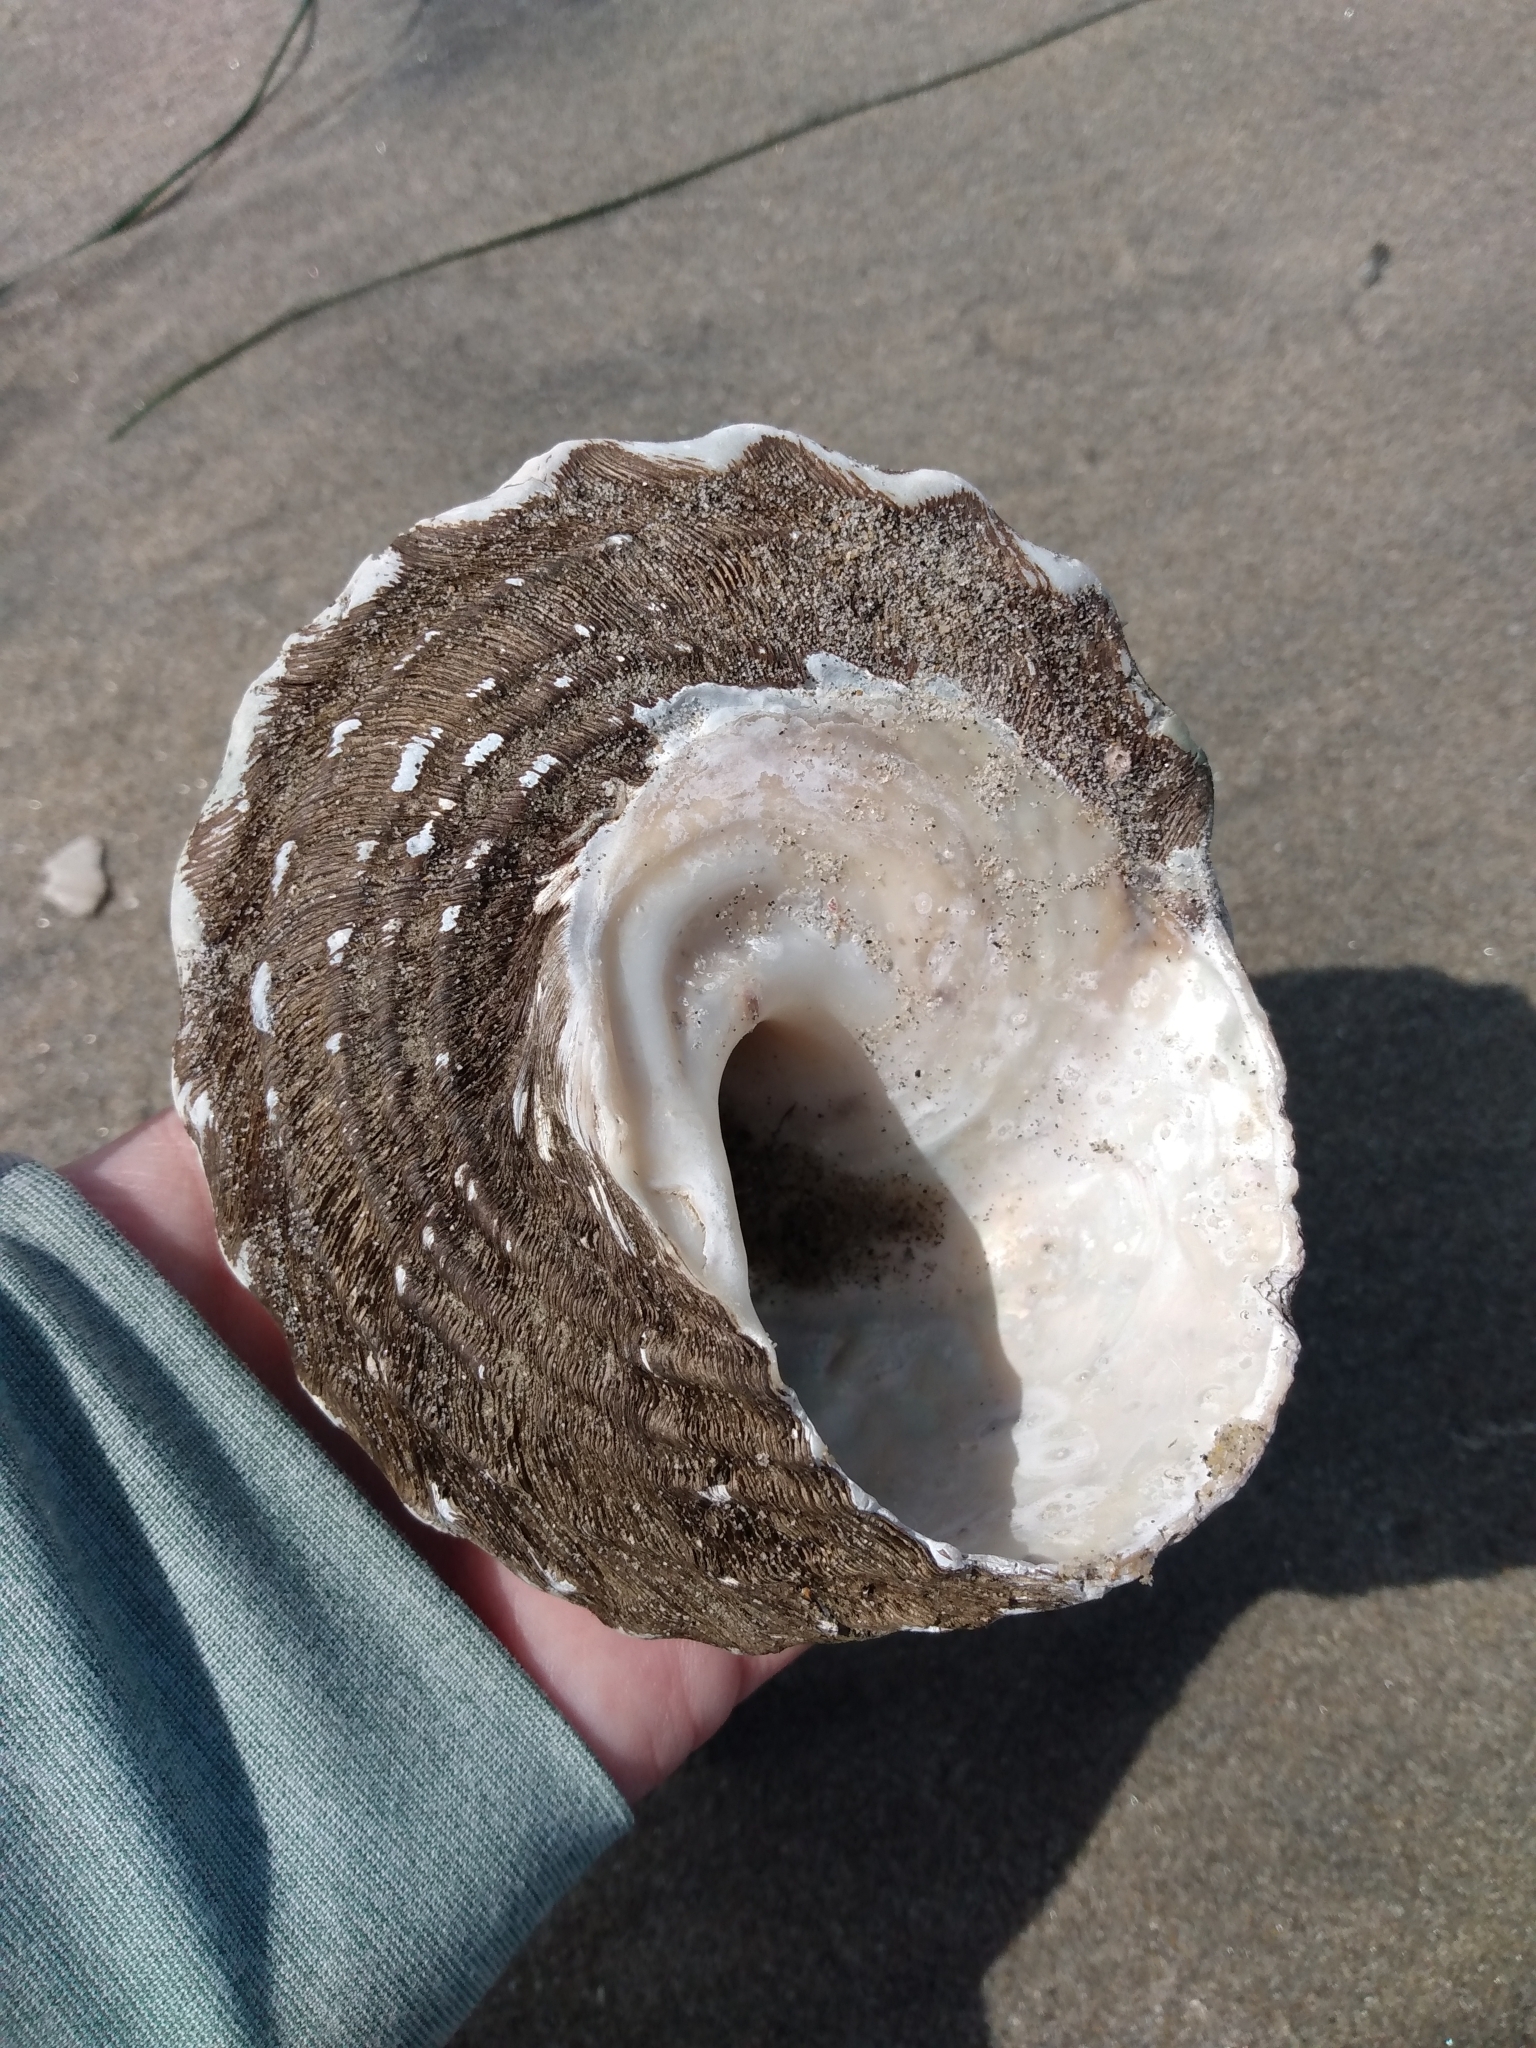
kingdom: Animalia
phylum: Mollusca
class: Gastropoda
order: Trochida
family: Turbinidae
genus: Megastraea
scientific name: Megastraea undosa
